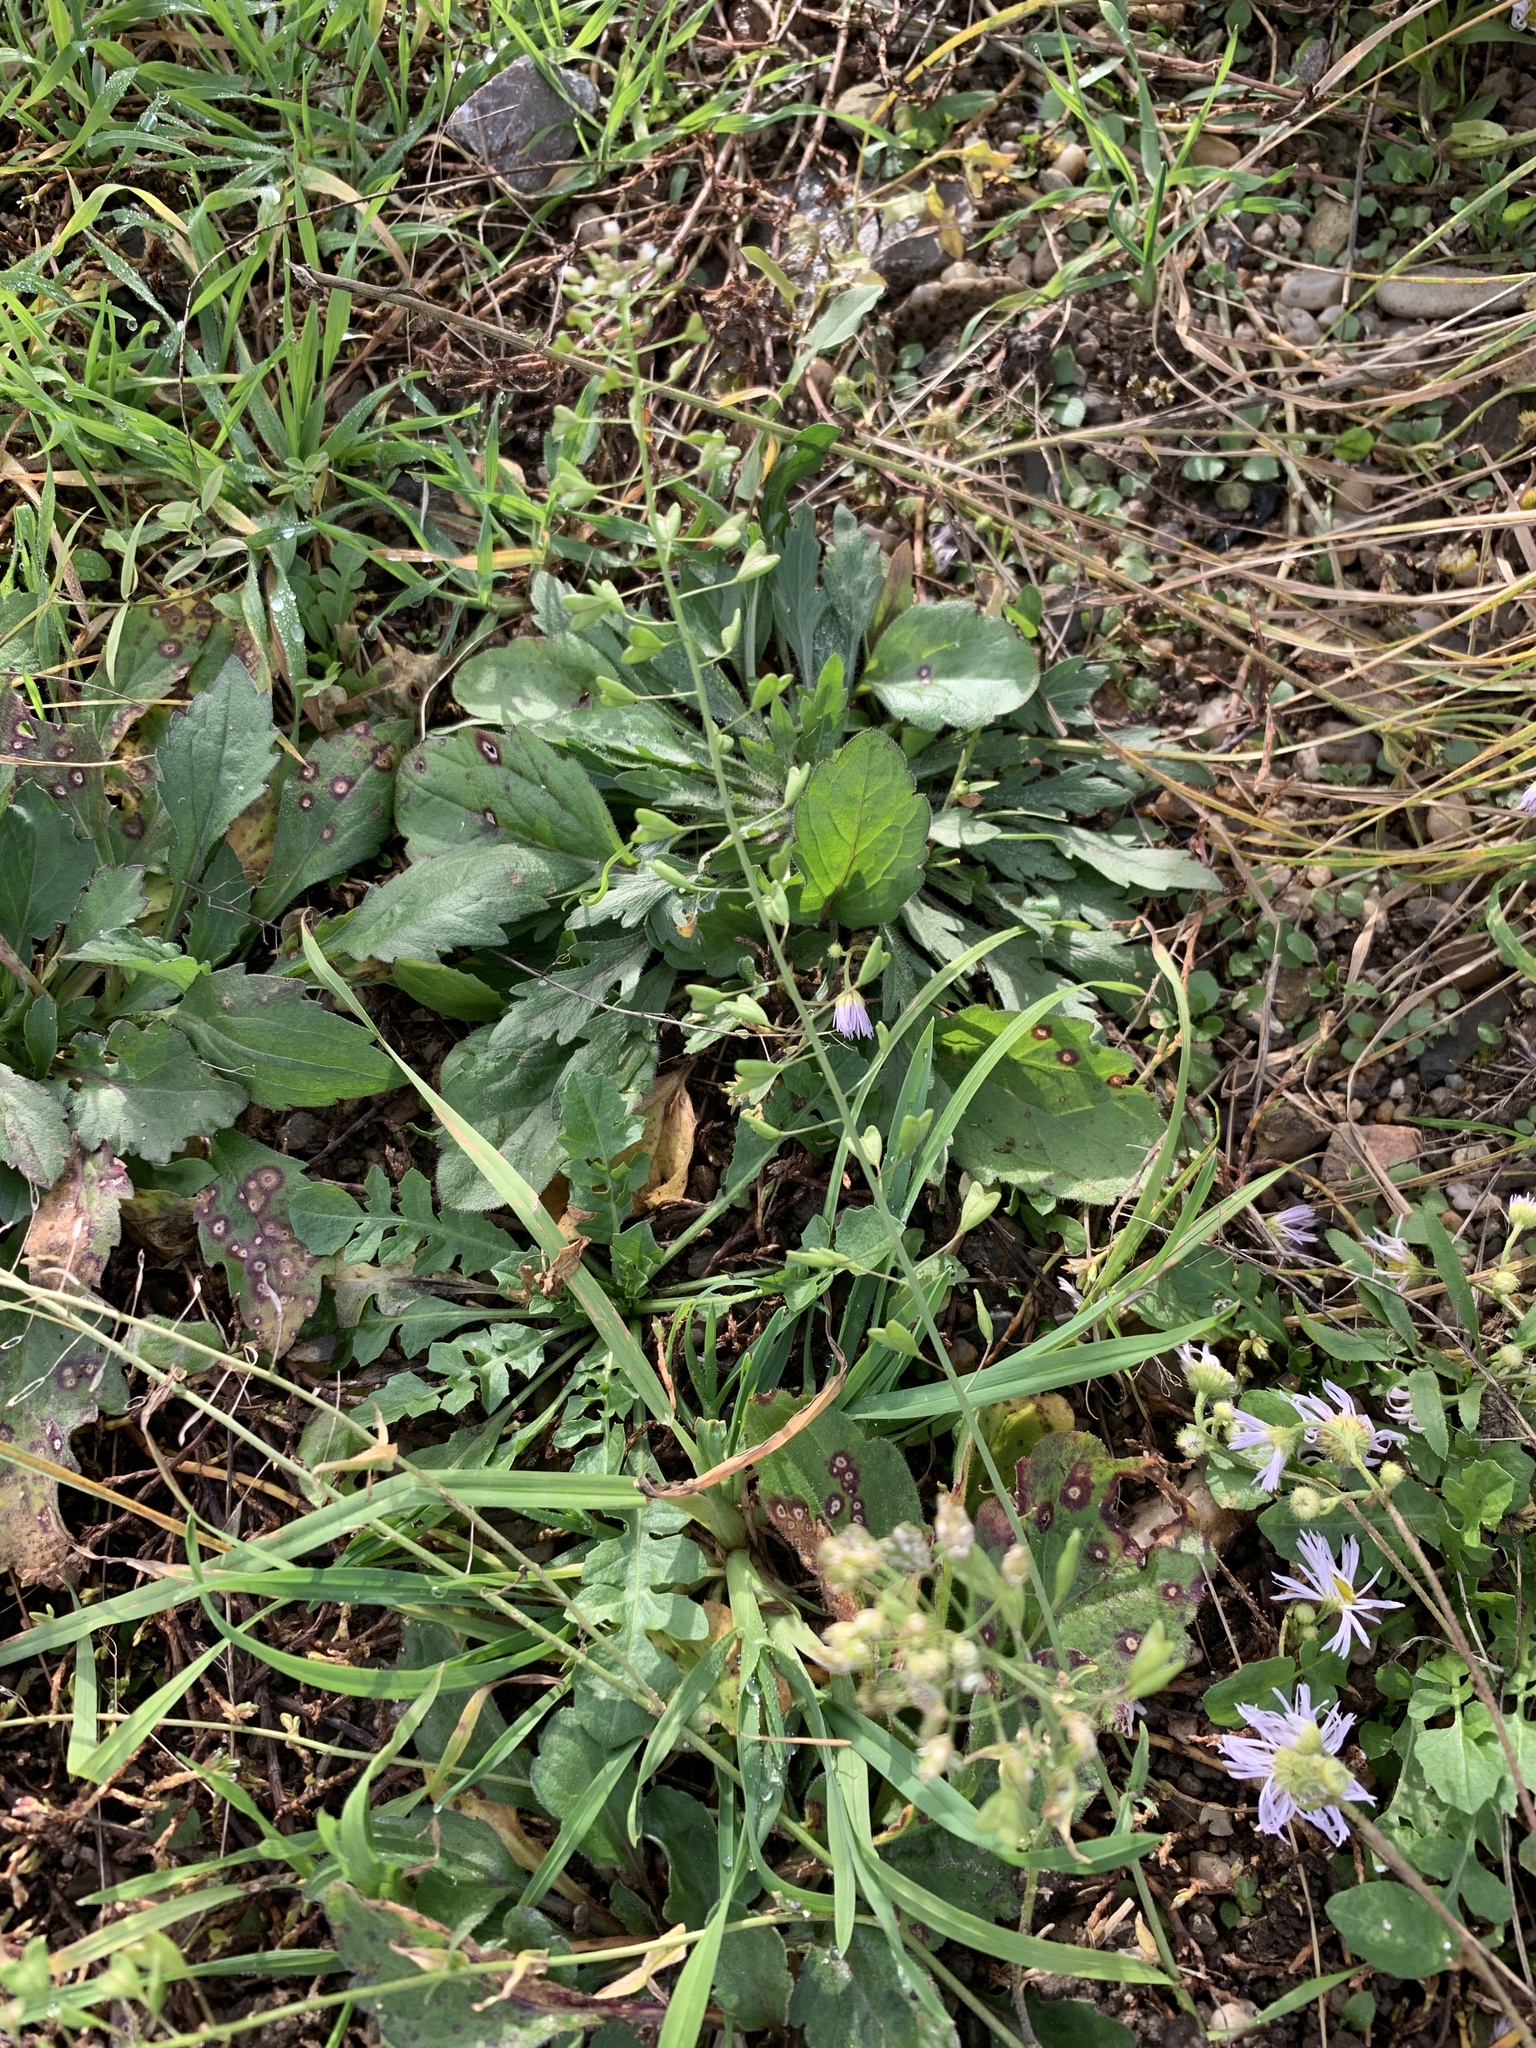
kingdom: Plantae
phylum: Tracheophyta
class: Magnoliopsida
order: Brassicales
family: Brassicaceae
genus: Capsella
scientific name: Capsella bursa-pastoris
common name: Shepherd's purse
